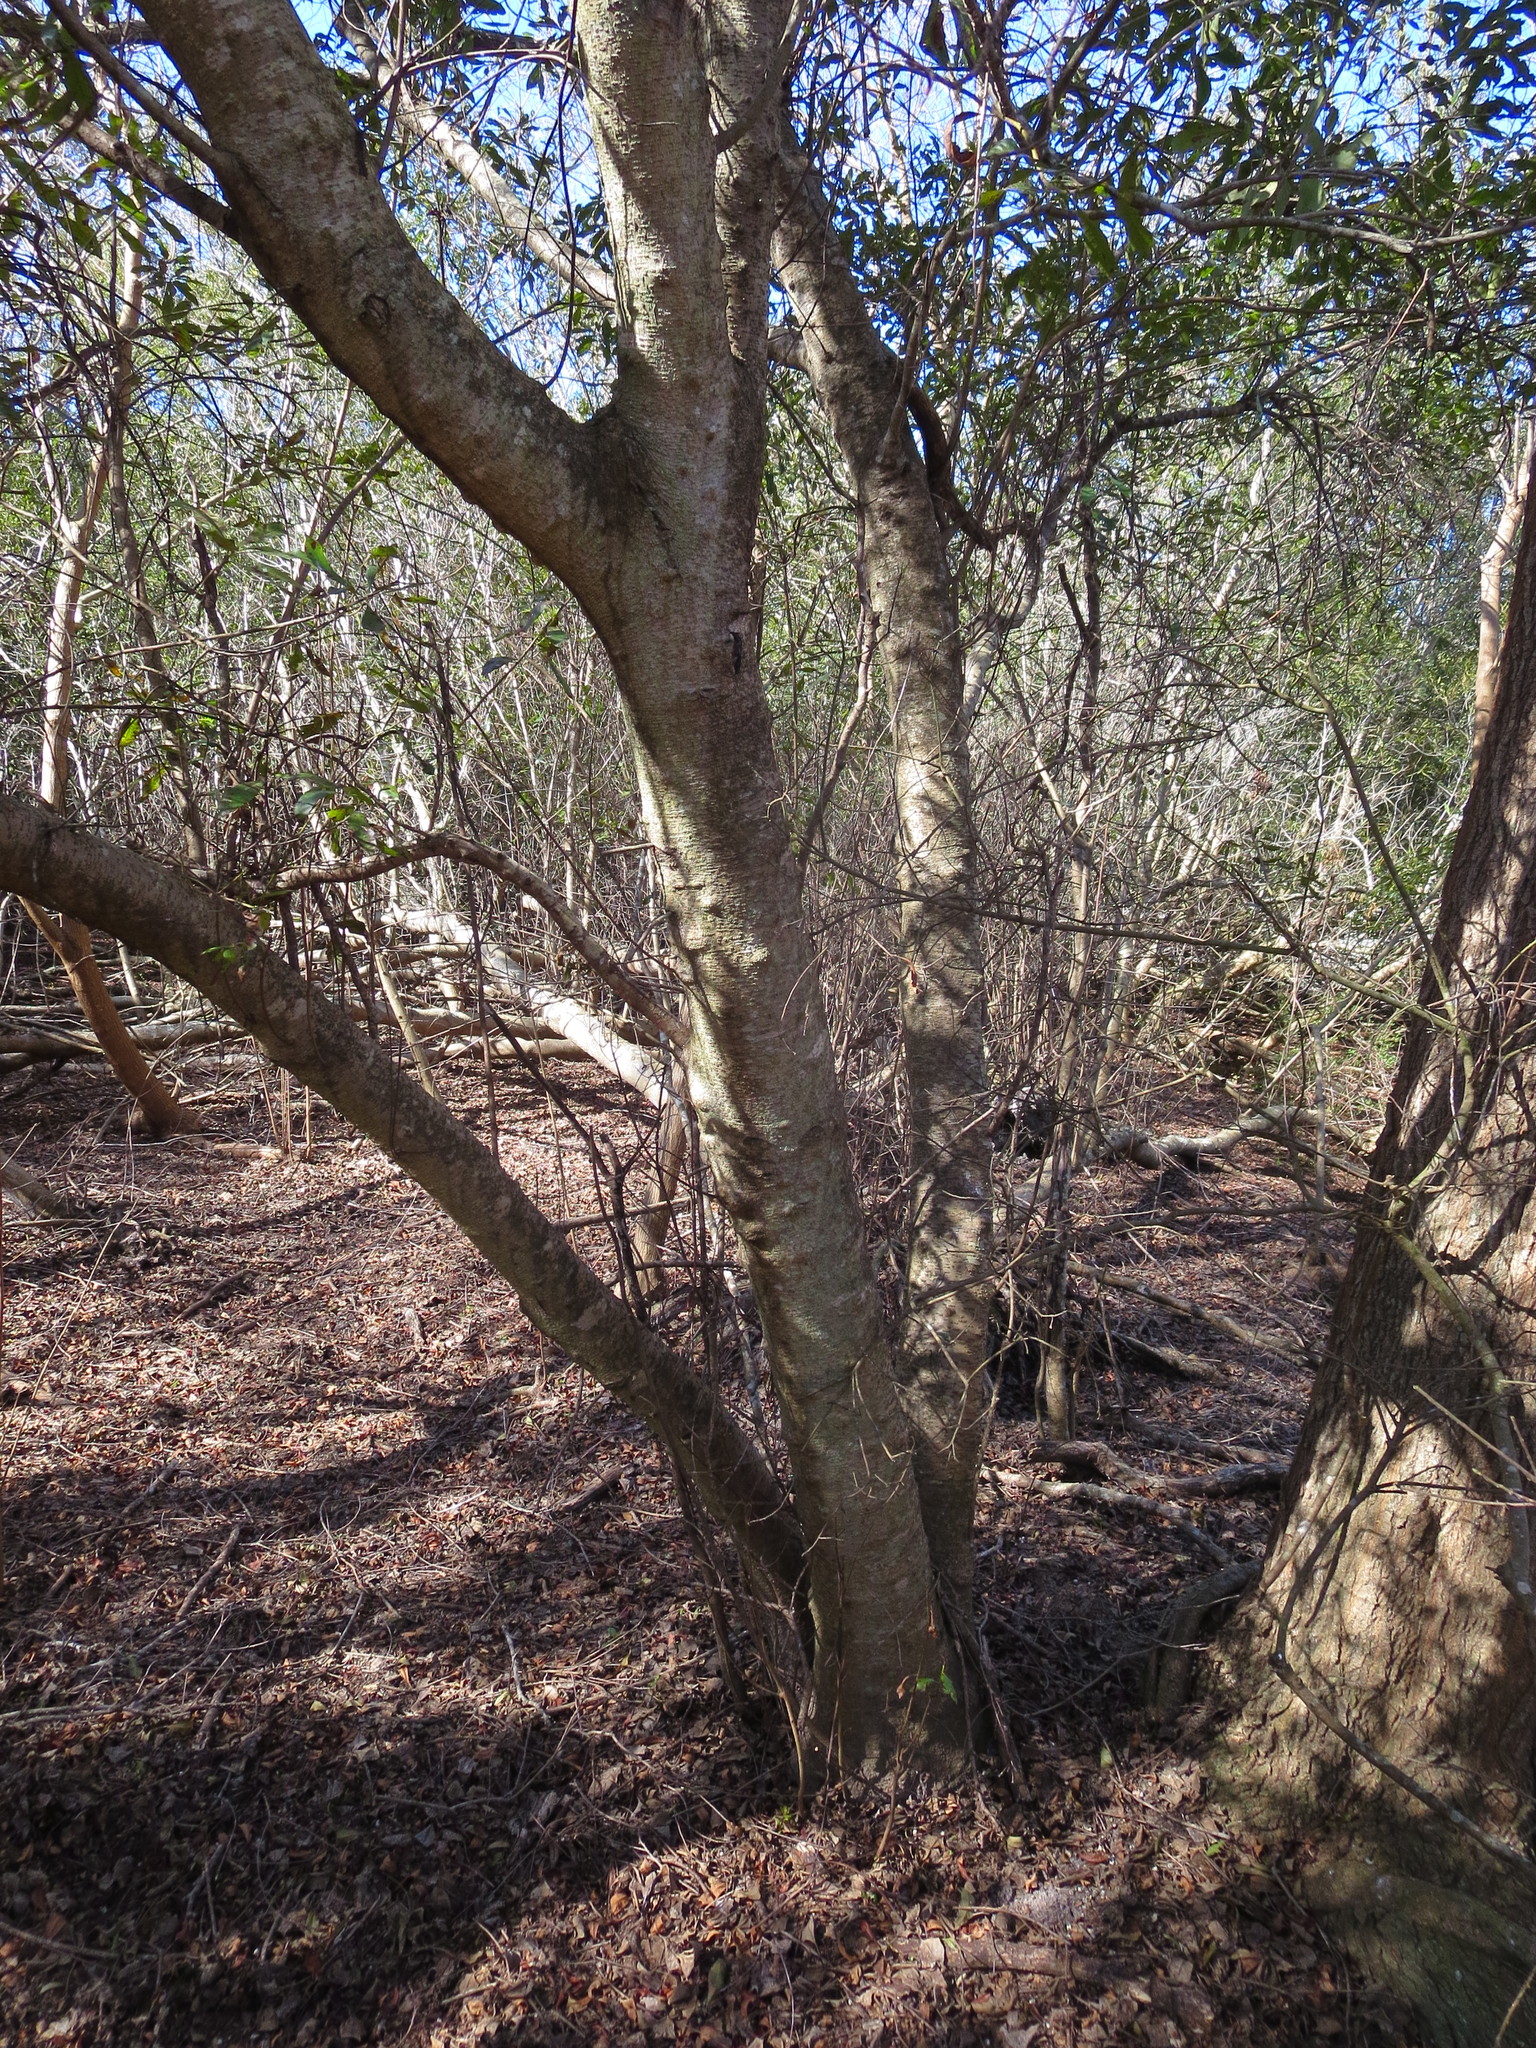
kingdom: Plantae
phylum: Tracheophyta
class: Magnoliopsida
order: Fagales
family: Myricaceae
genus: Morella
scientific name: Morella cerifera
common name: Wax myrtle
